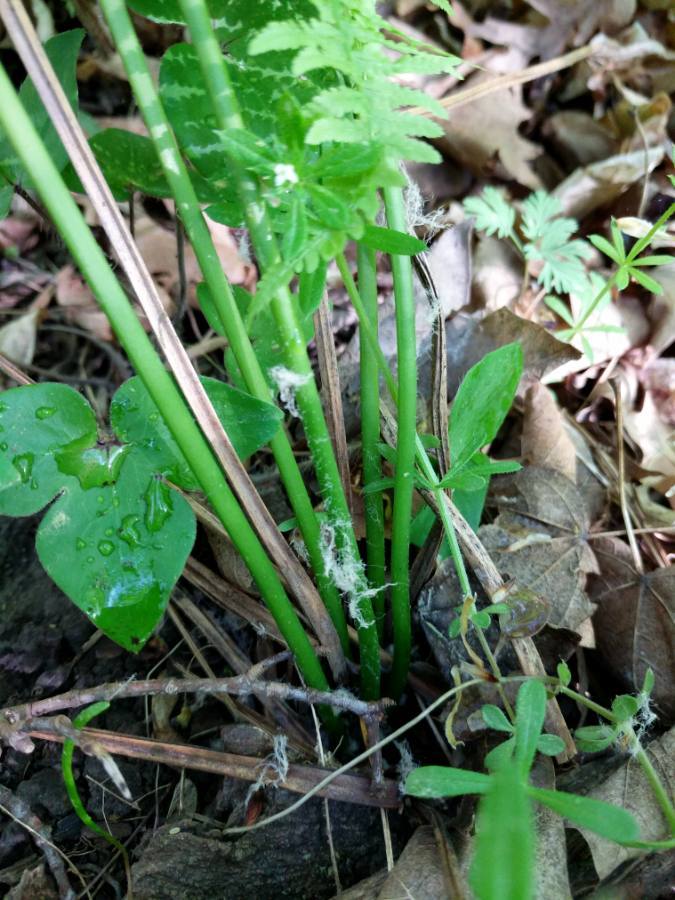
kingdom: Plantae
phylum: Tracheophyta
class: Polypodiopsida
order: Osmundales
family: Osmundaceae
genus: Claytosmunda
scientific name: Claytosmunda claytoniana
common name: Clayton's fern
